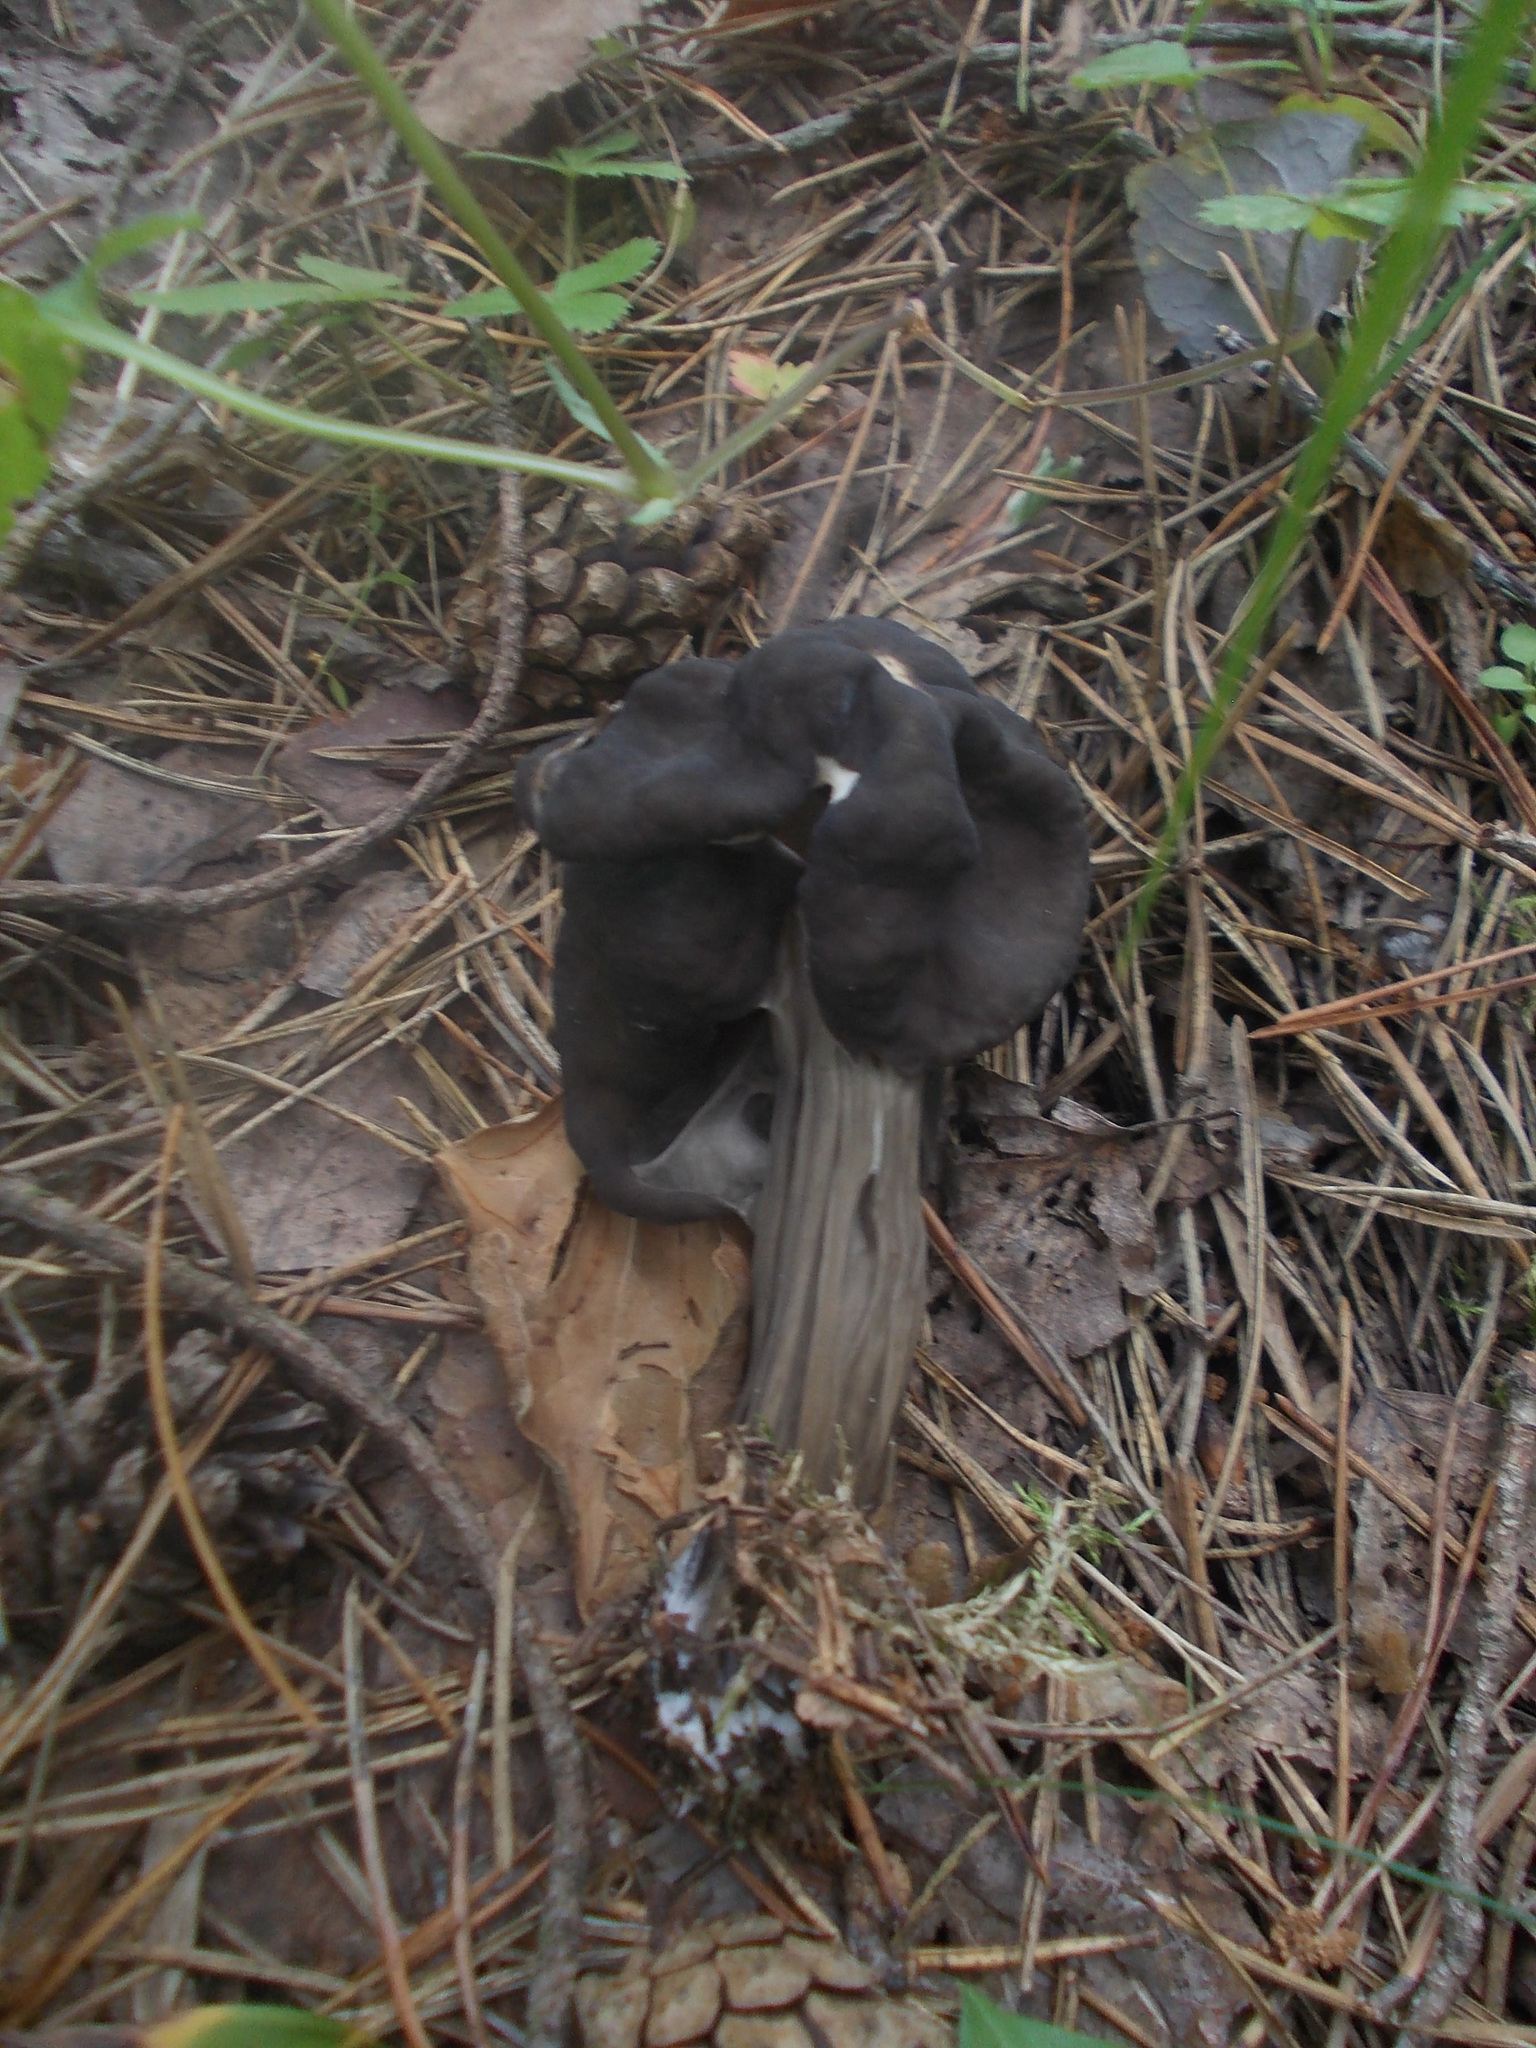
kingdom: Fungi
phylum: Ascomycota
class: Pezizomycetes
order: Pezizales
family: Helvellaceae
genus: Helvella
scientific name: Helvella lacunosa
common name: Elfin saddle
